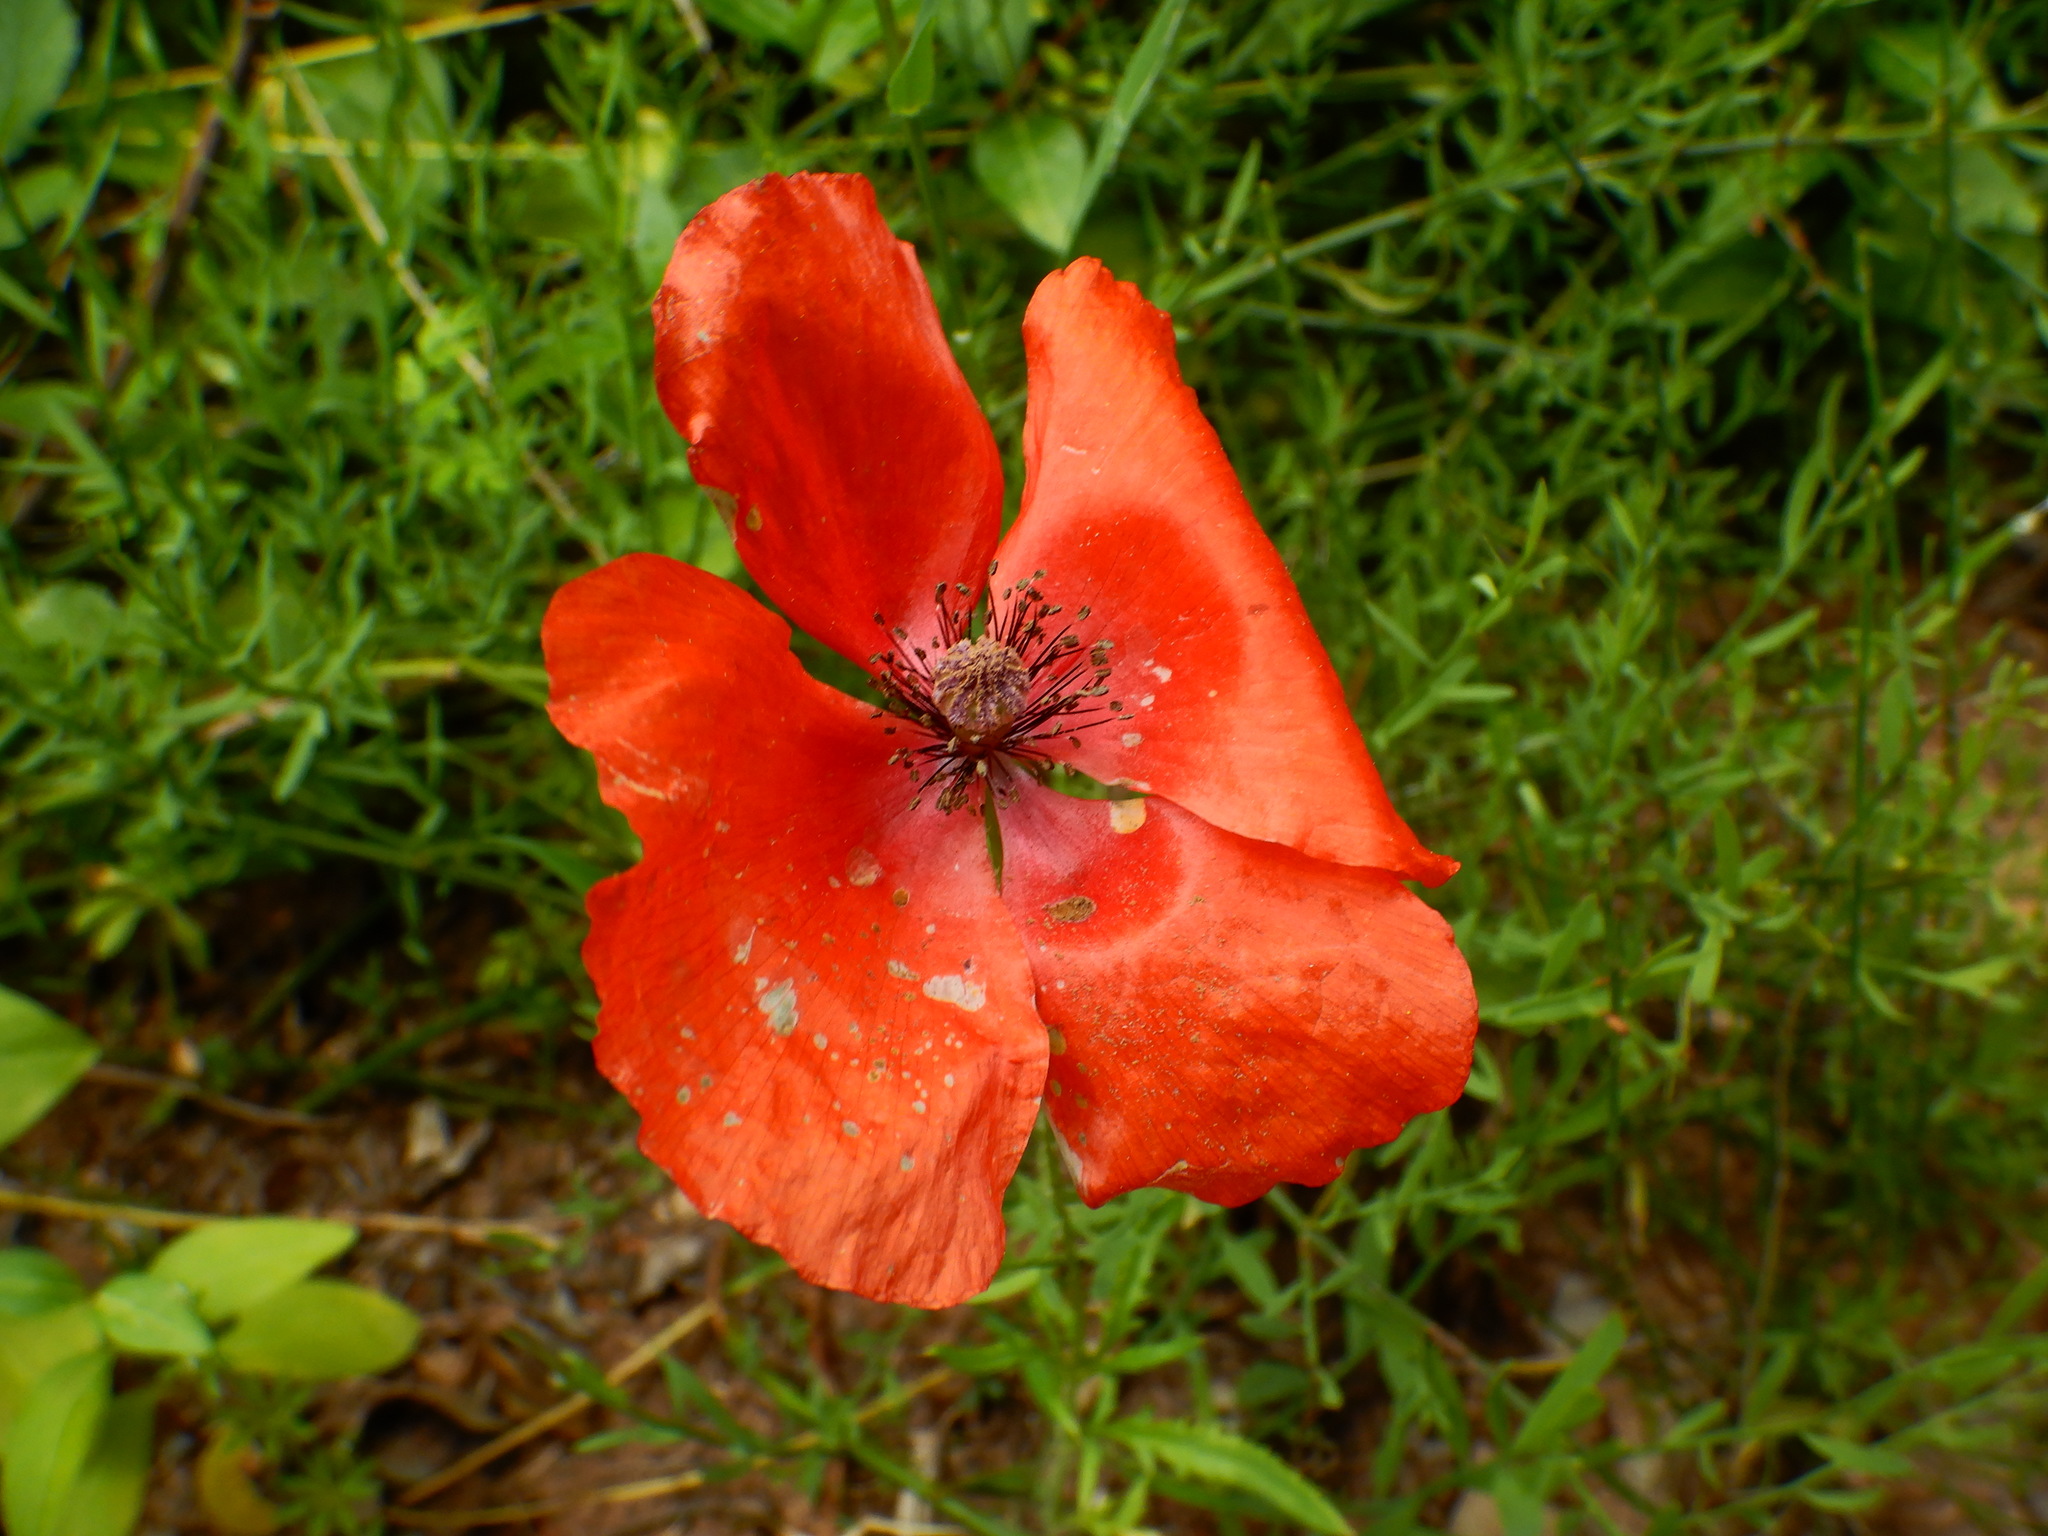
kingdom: Plantae
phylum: Tracheophyta
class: Magnoliopsida
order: Ranunculales
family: Papaveraceae
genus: Papaver
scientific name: Papaver rhoeas
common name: Corn poppy
